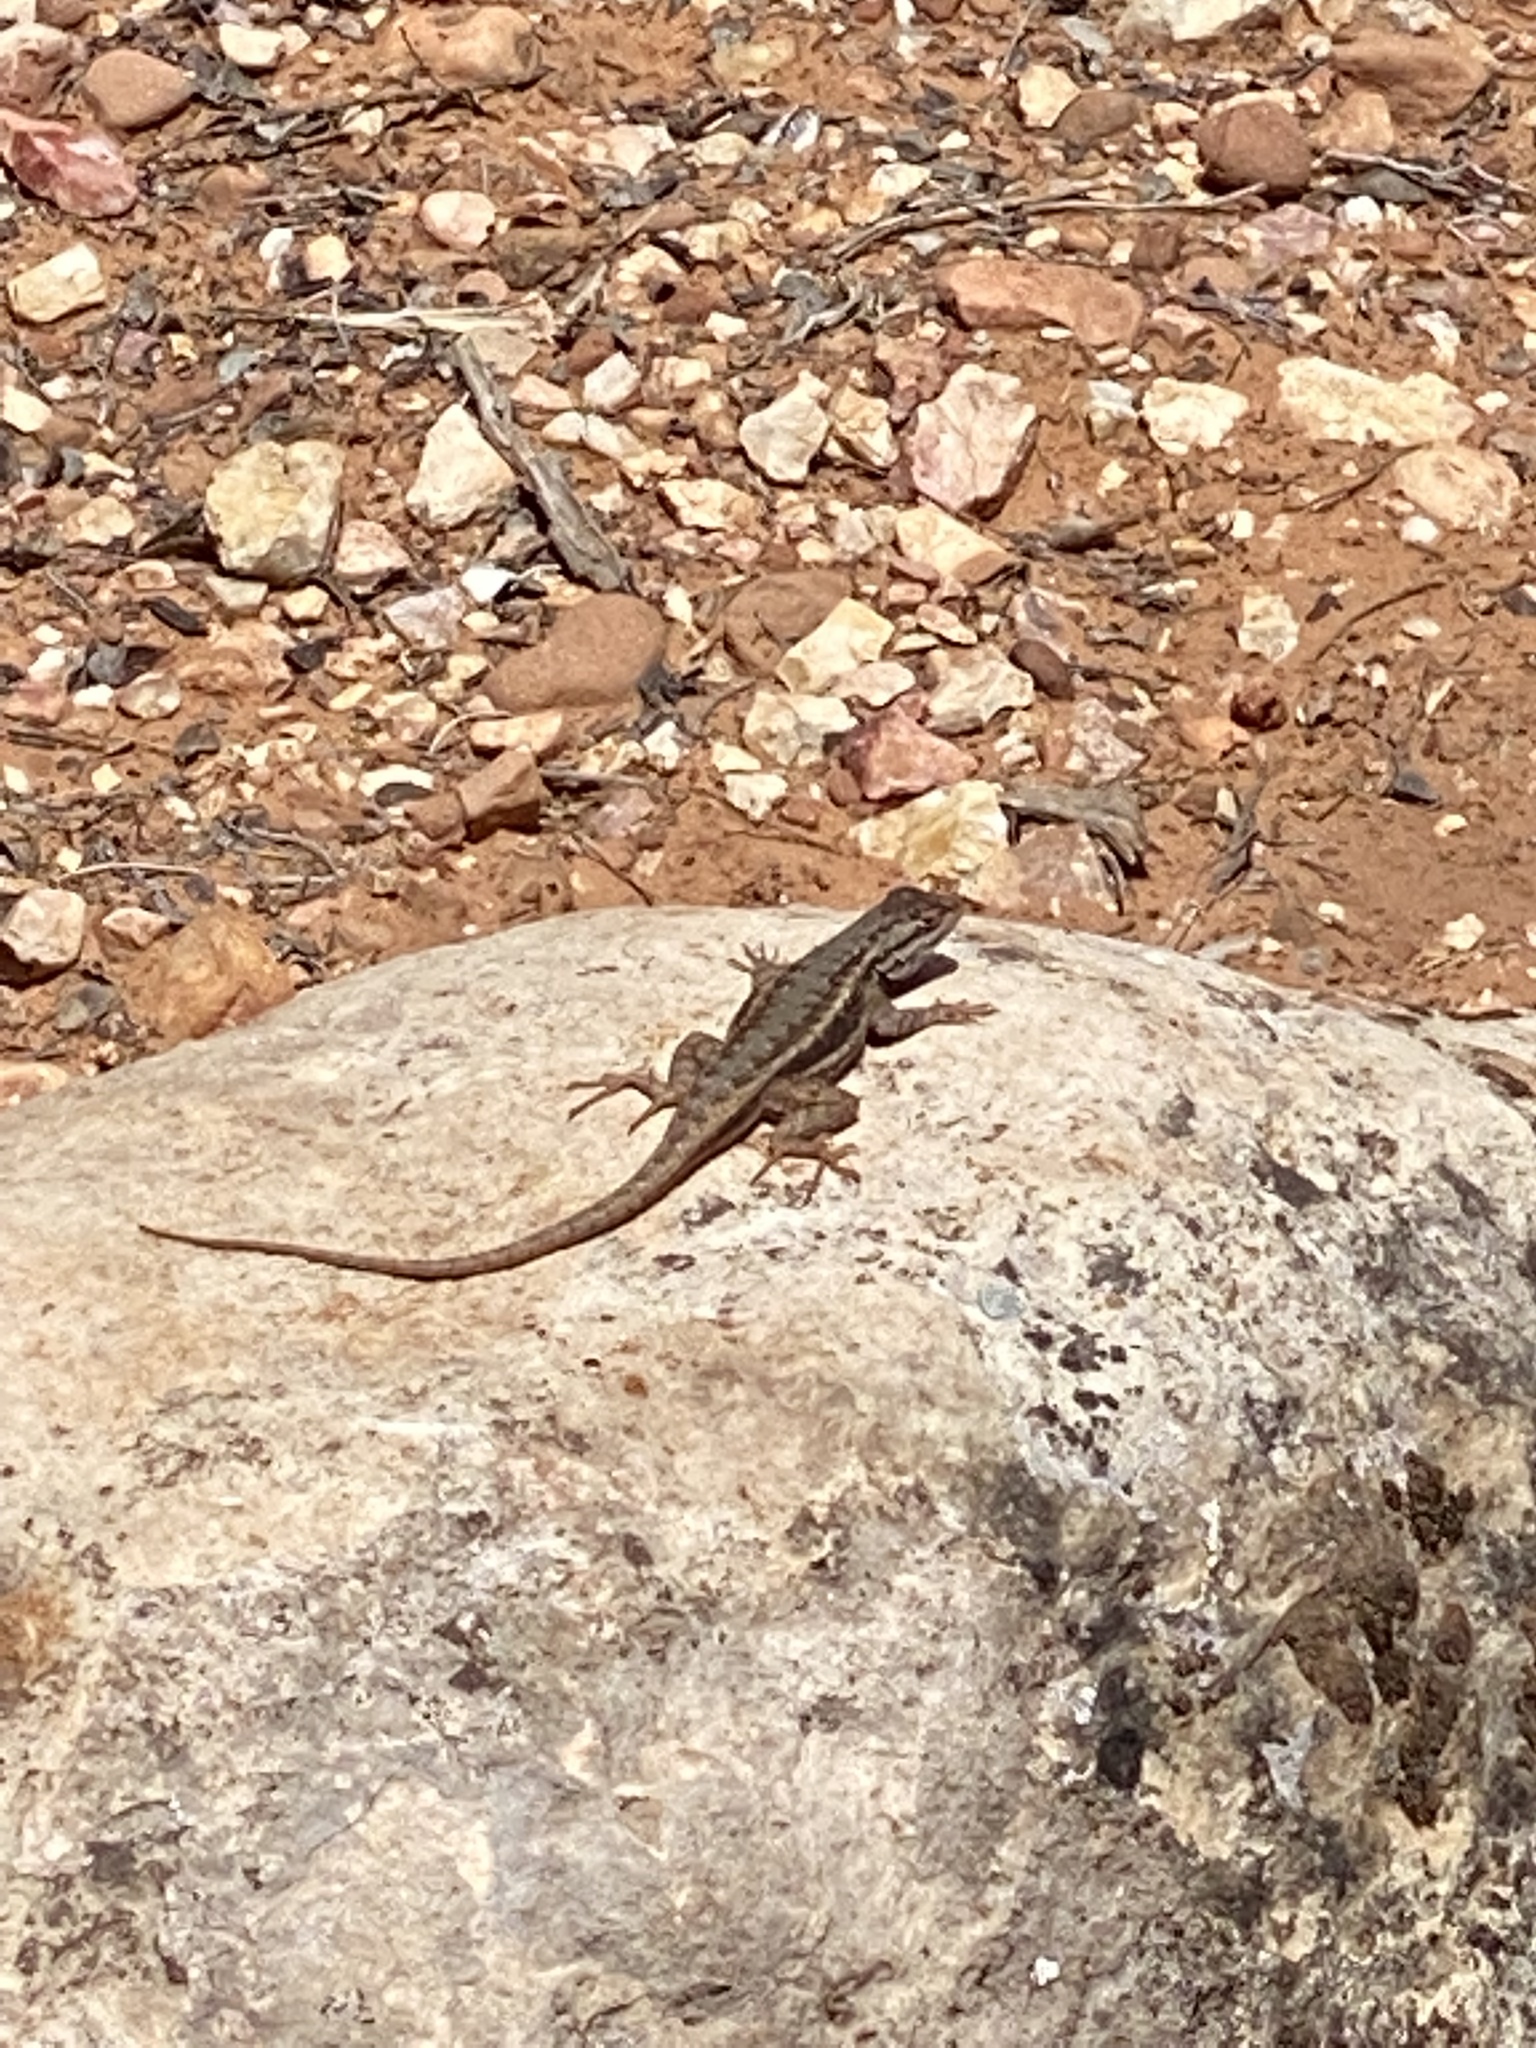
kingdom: Animalia
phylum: Chordata
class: Squamata
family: Phrynosomatidae
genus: Sceloporus
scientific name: Sceloporus tristichus
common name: Plateau fence lizard
